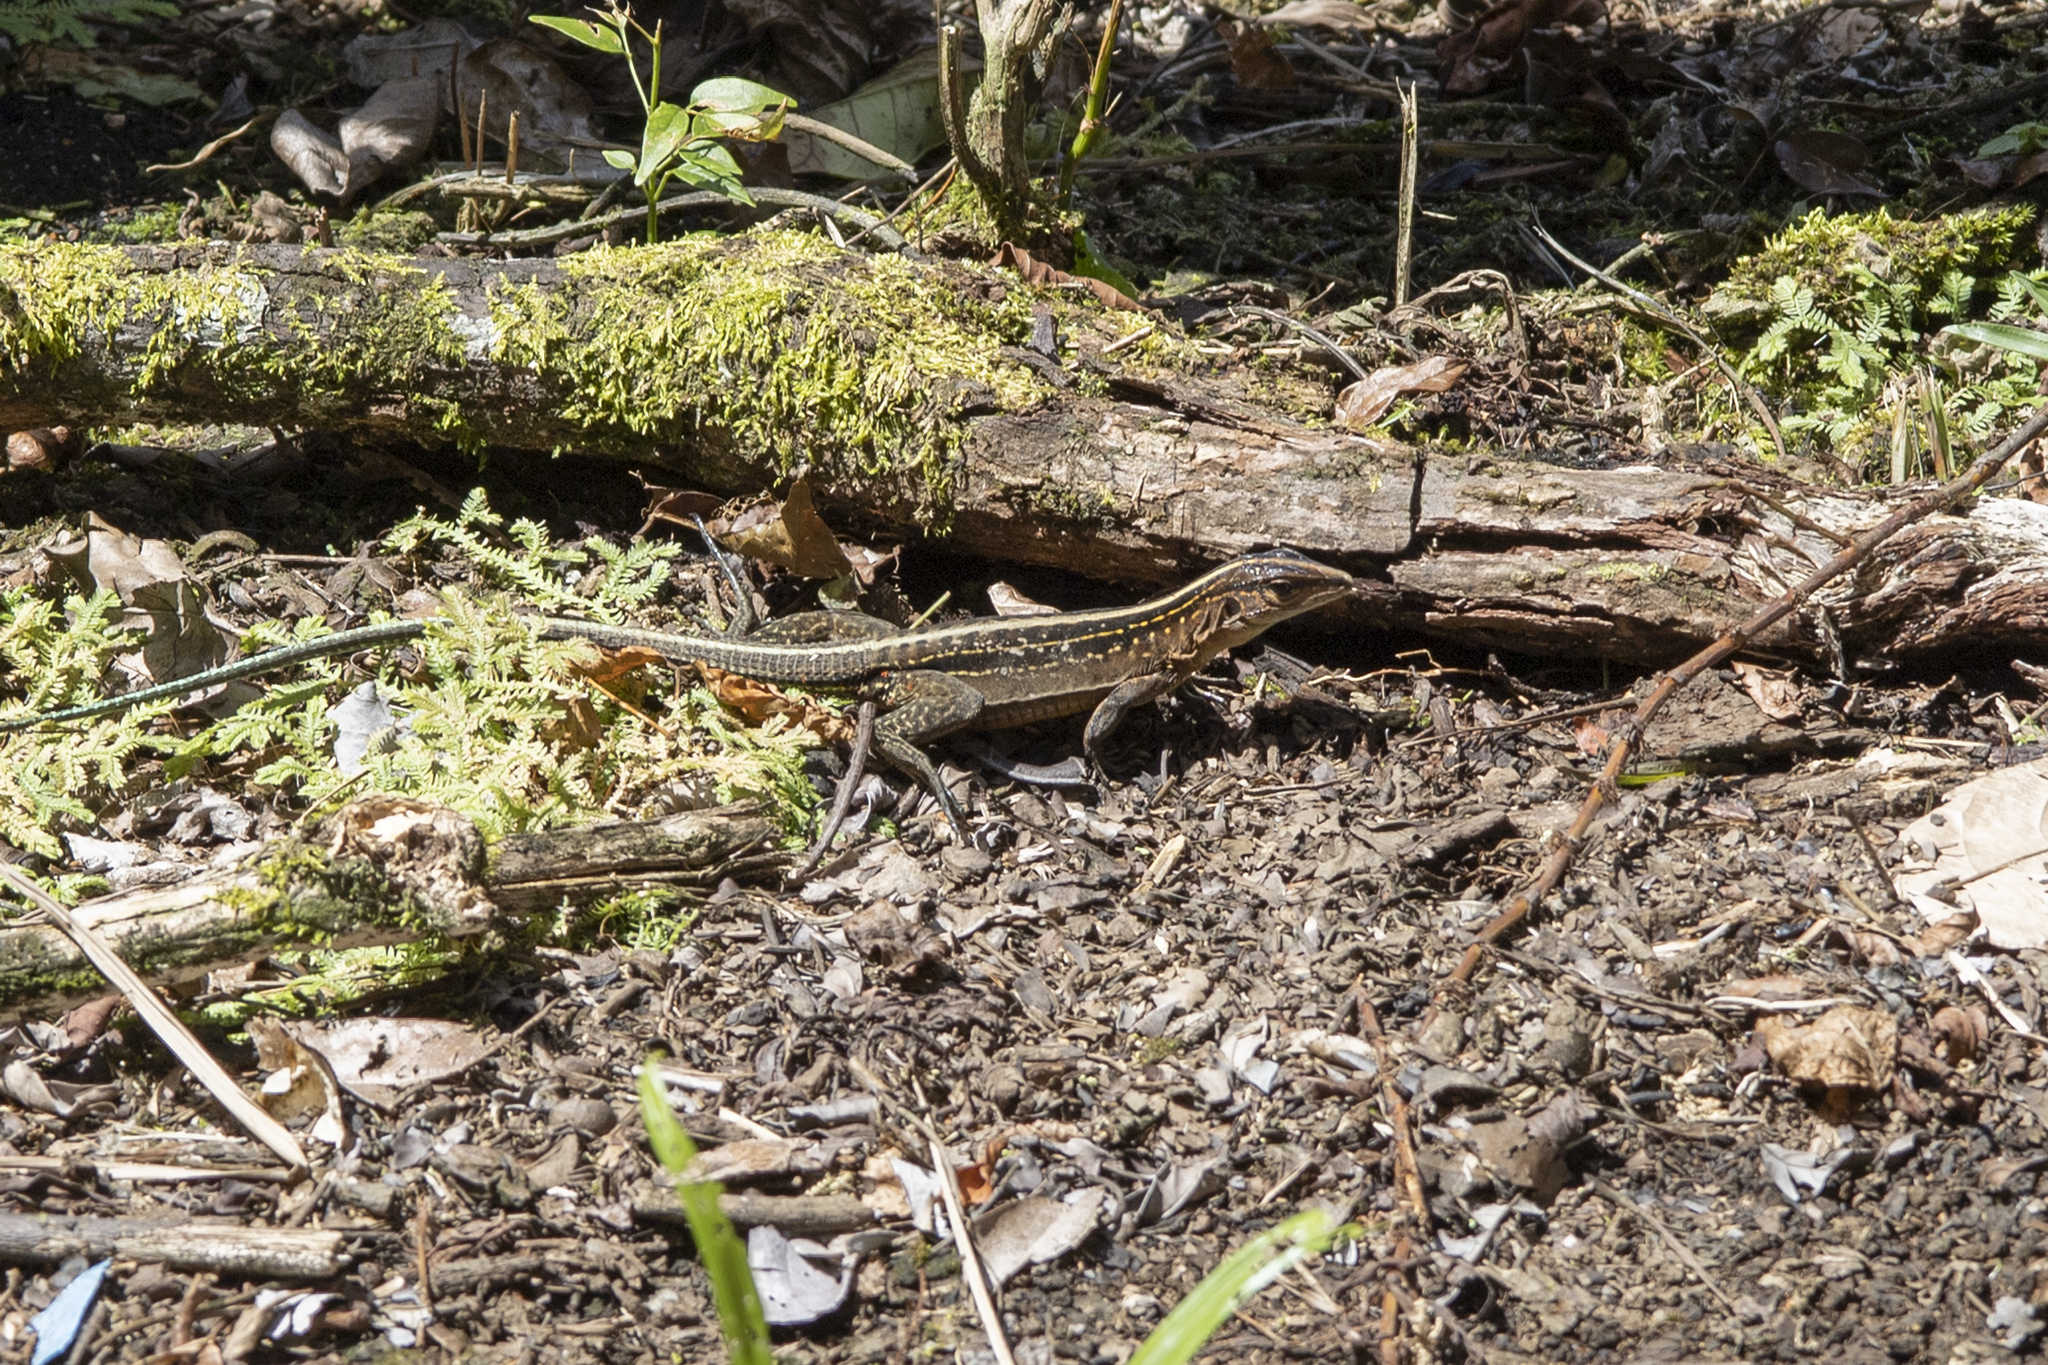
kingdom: Animalia
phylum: Chordata
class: Squamata
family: Teiidae
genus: Holcosus
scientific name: Holcosus festivus
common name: Middle american ameiva
